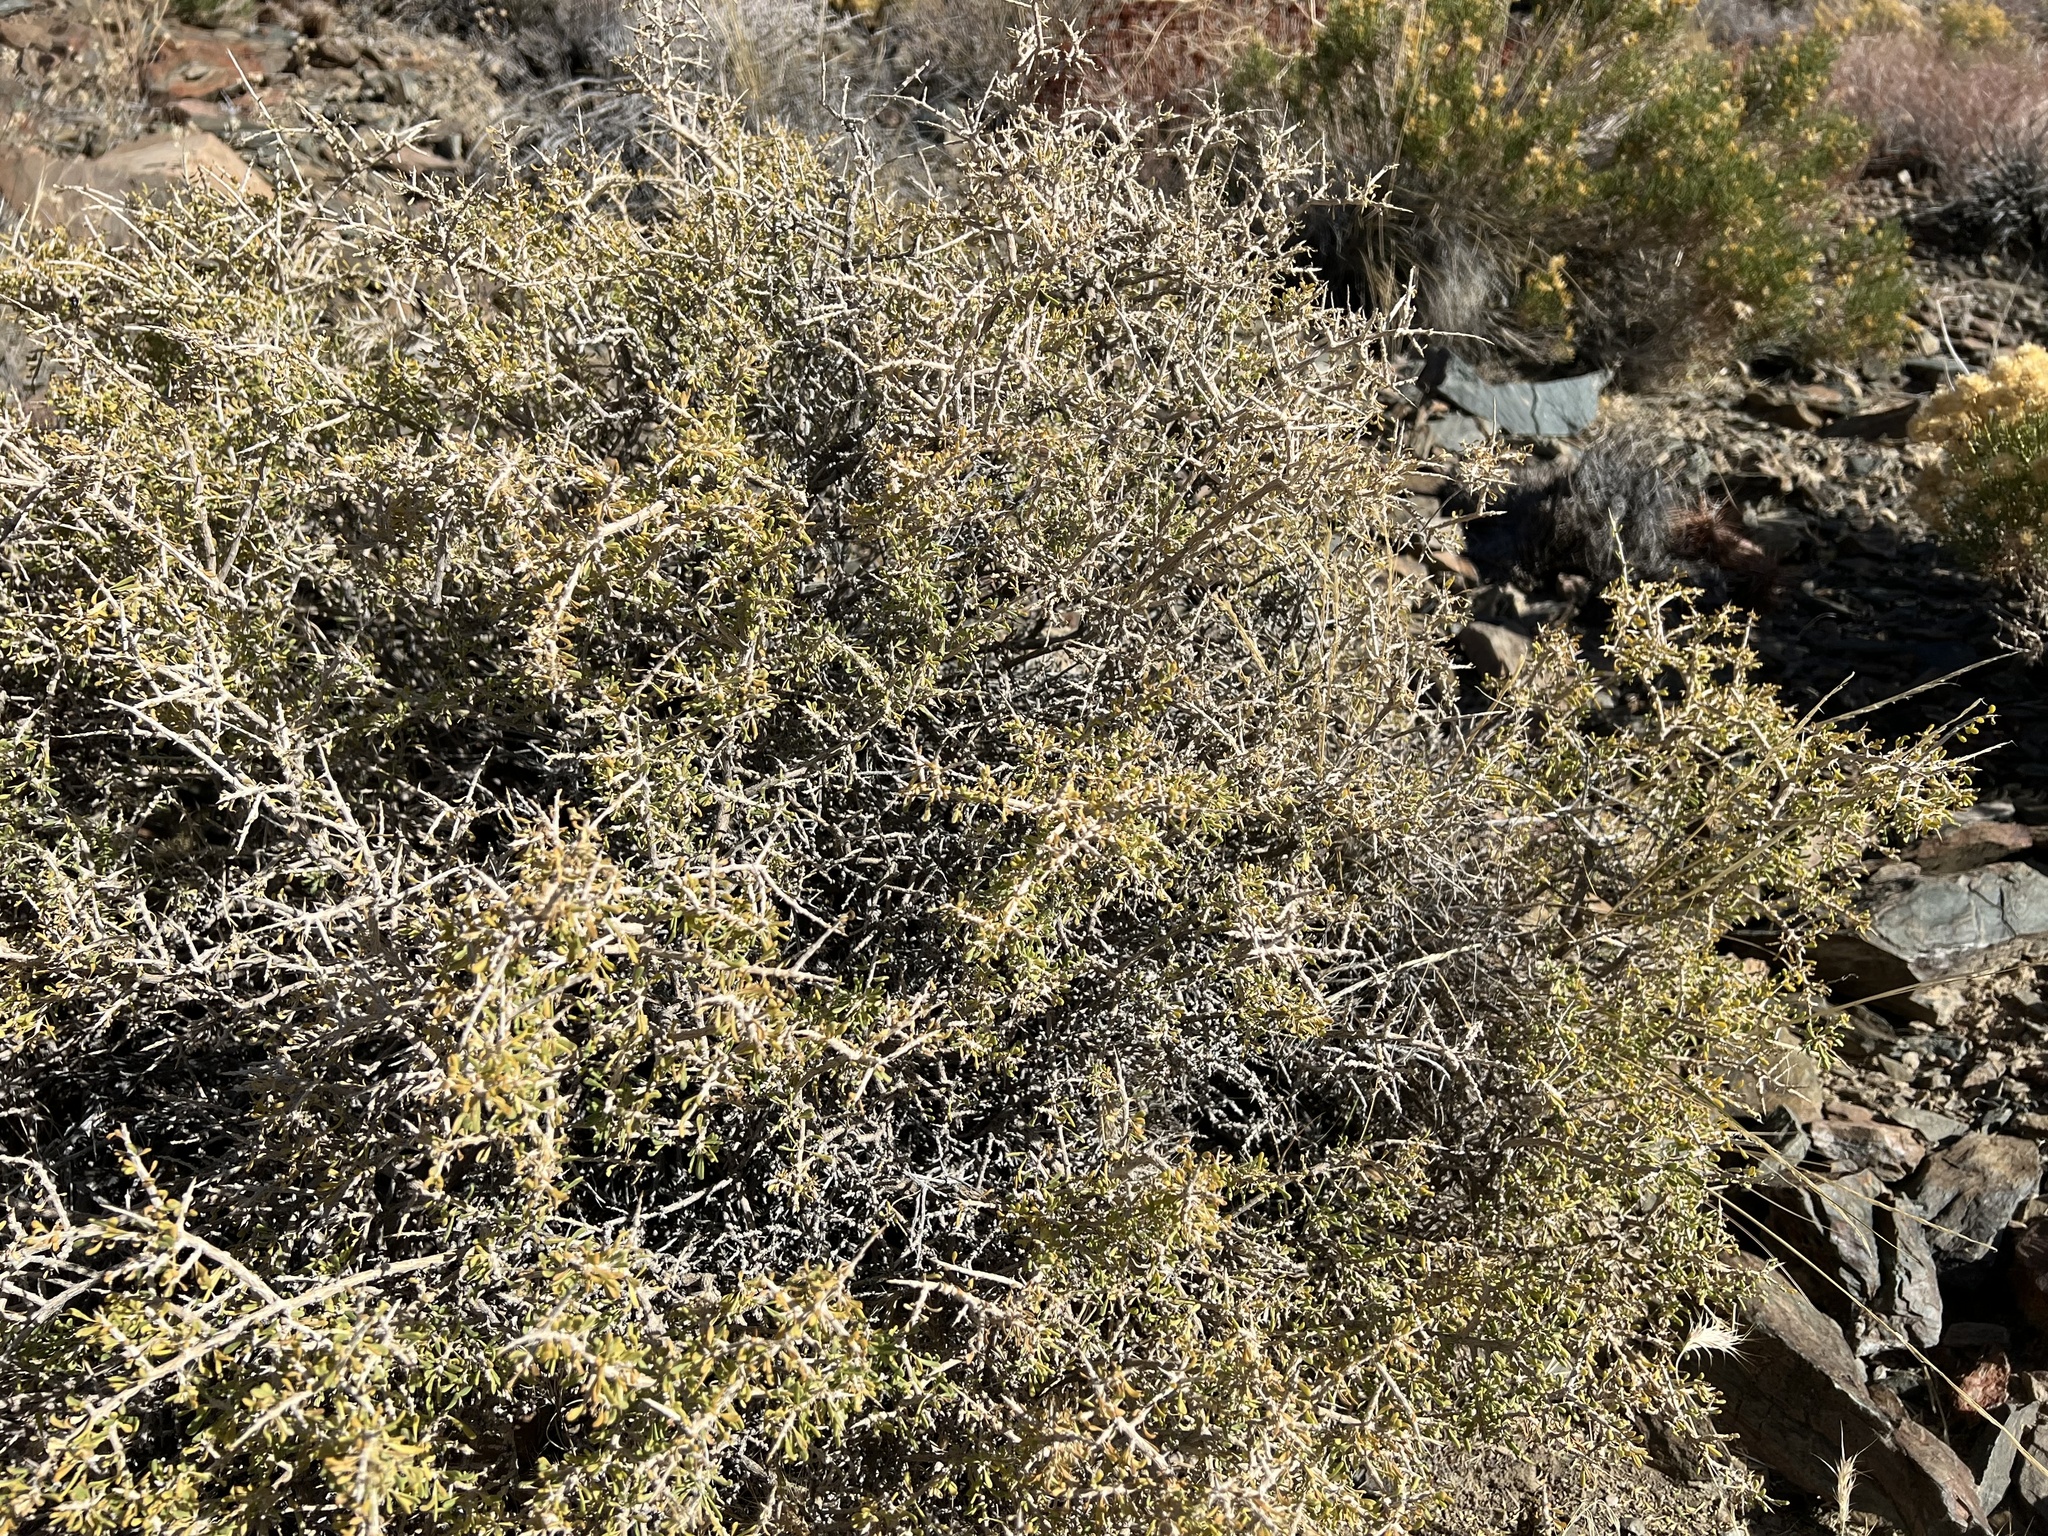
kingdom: Plantae
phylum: Tracheophyta
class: Magnoliopsida
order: Solanales
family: Solanaceae
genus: Lycium
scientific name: Lycium andersonii
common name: Water-jacket
